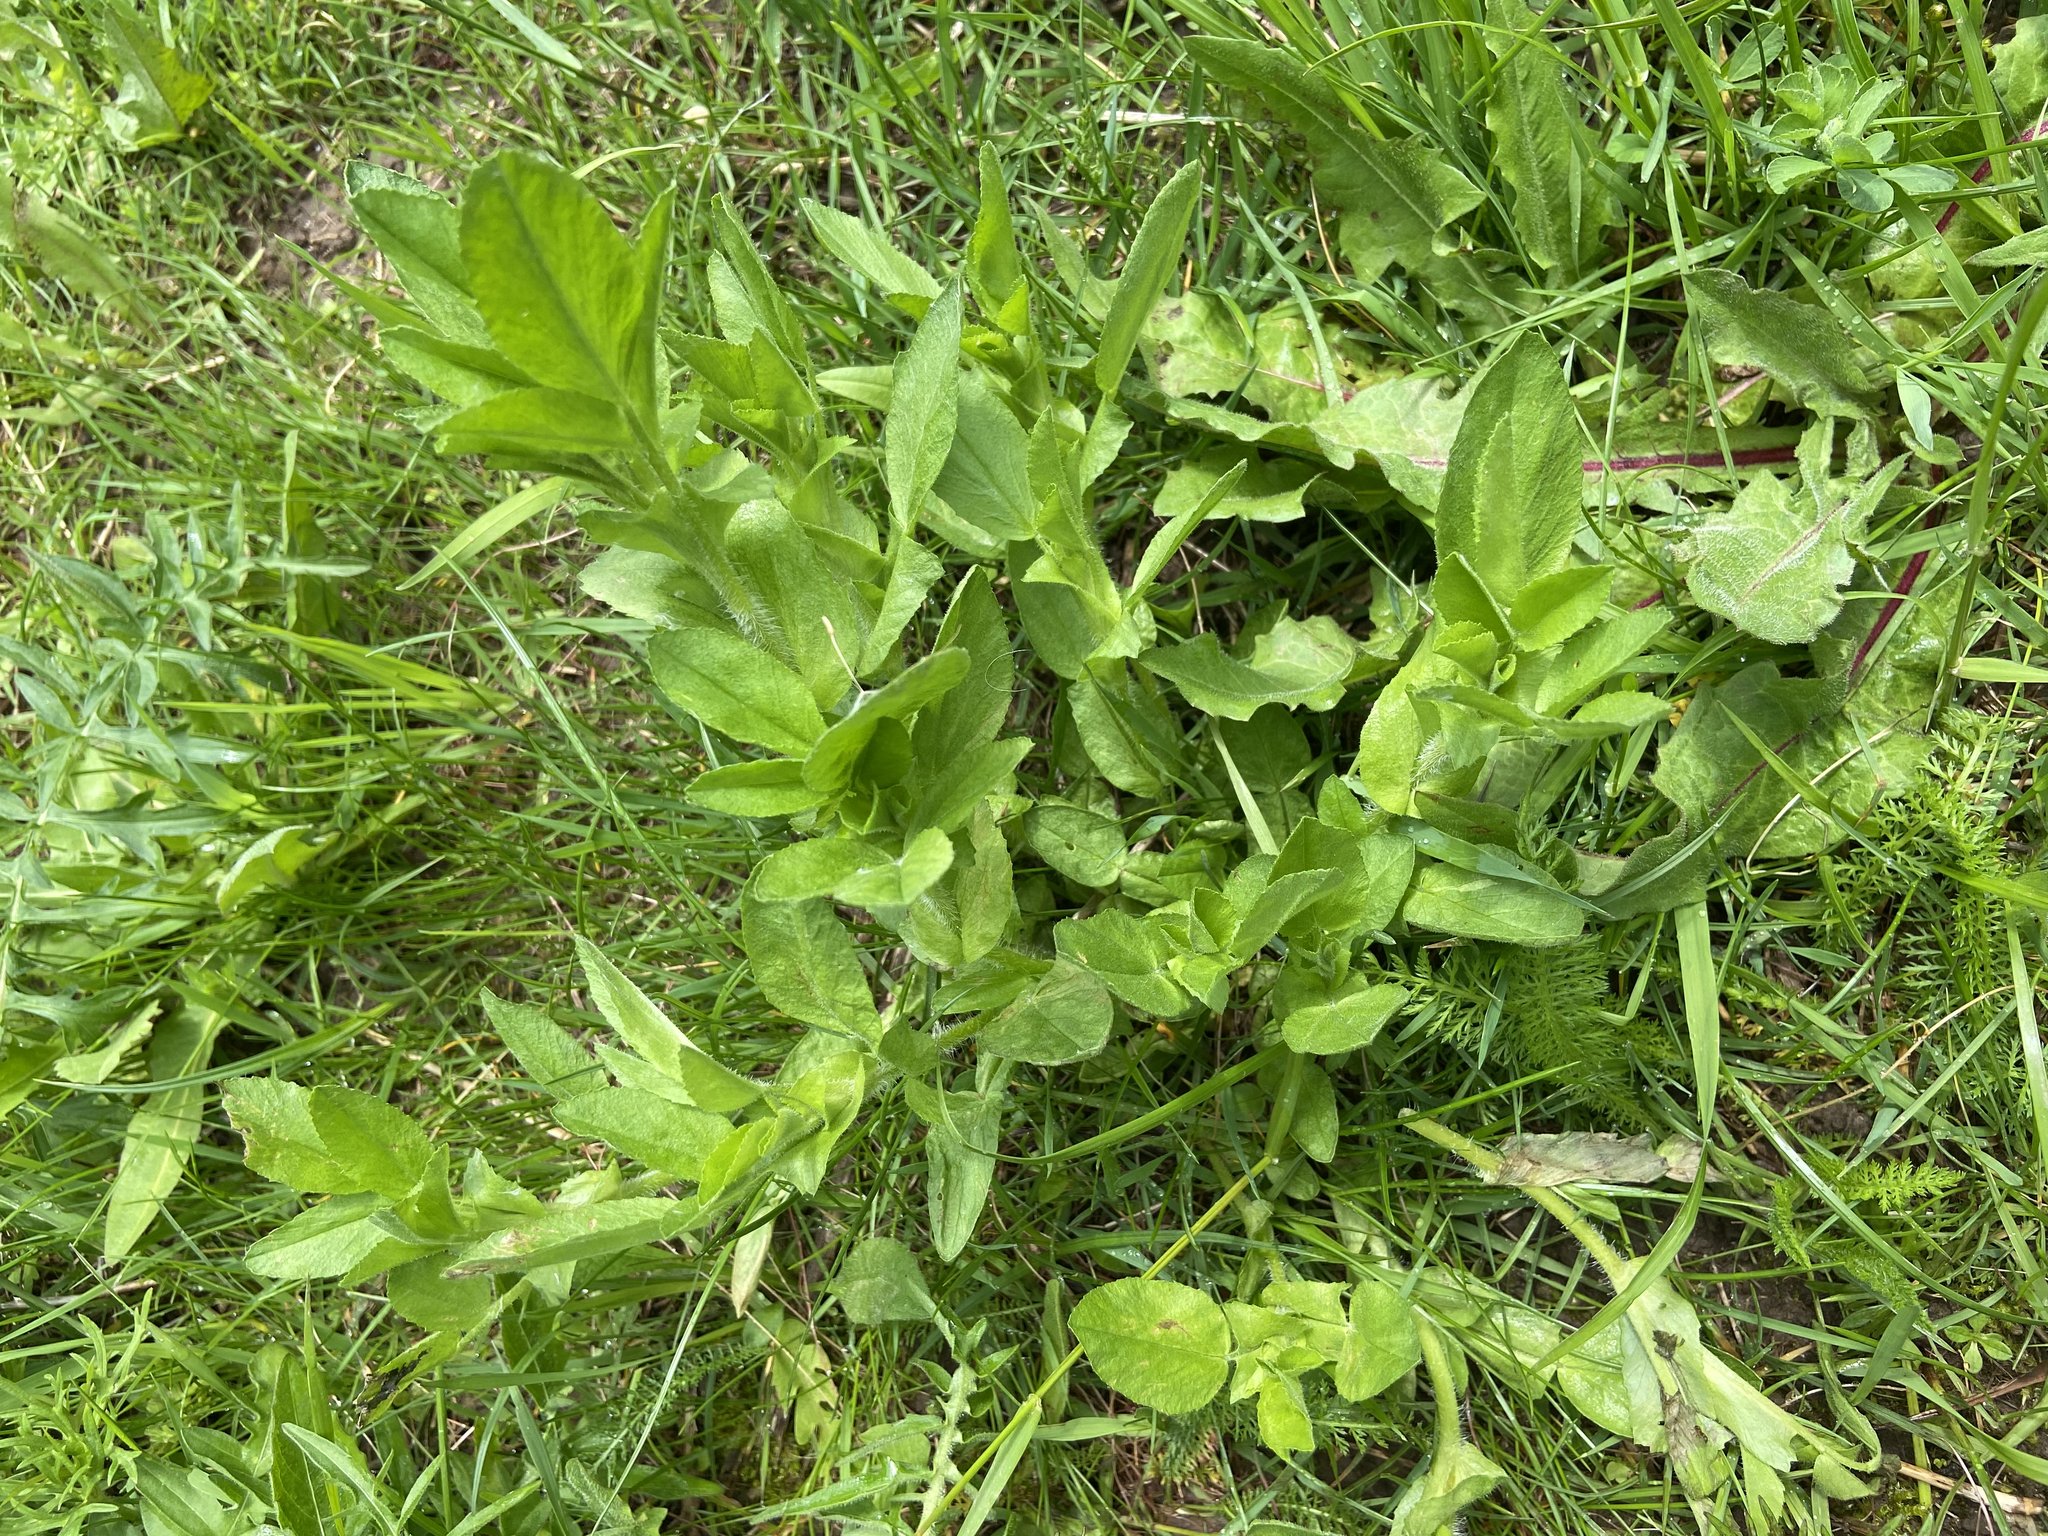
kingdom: Plantae
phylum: Tracheophyta
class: Magnoliopsida
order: Fabales
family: Fabaceae
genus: Ononis
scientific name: Ononis arvensis
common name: Field restharrow
